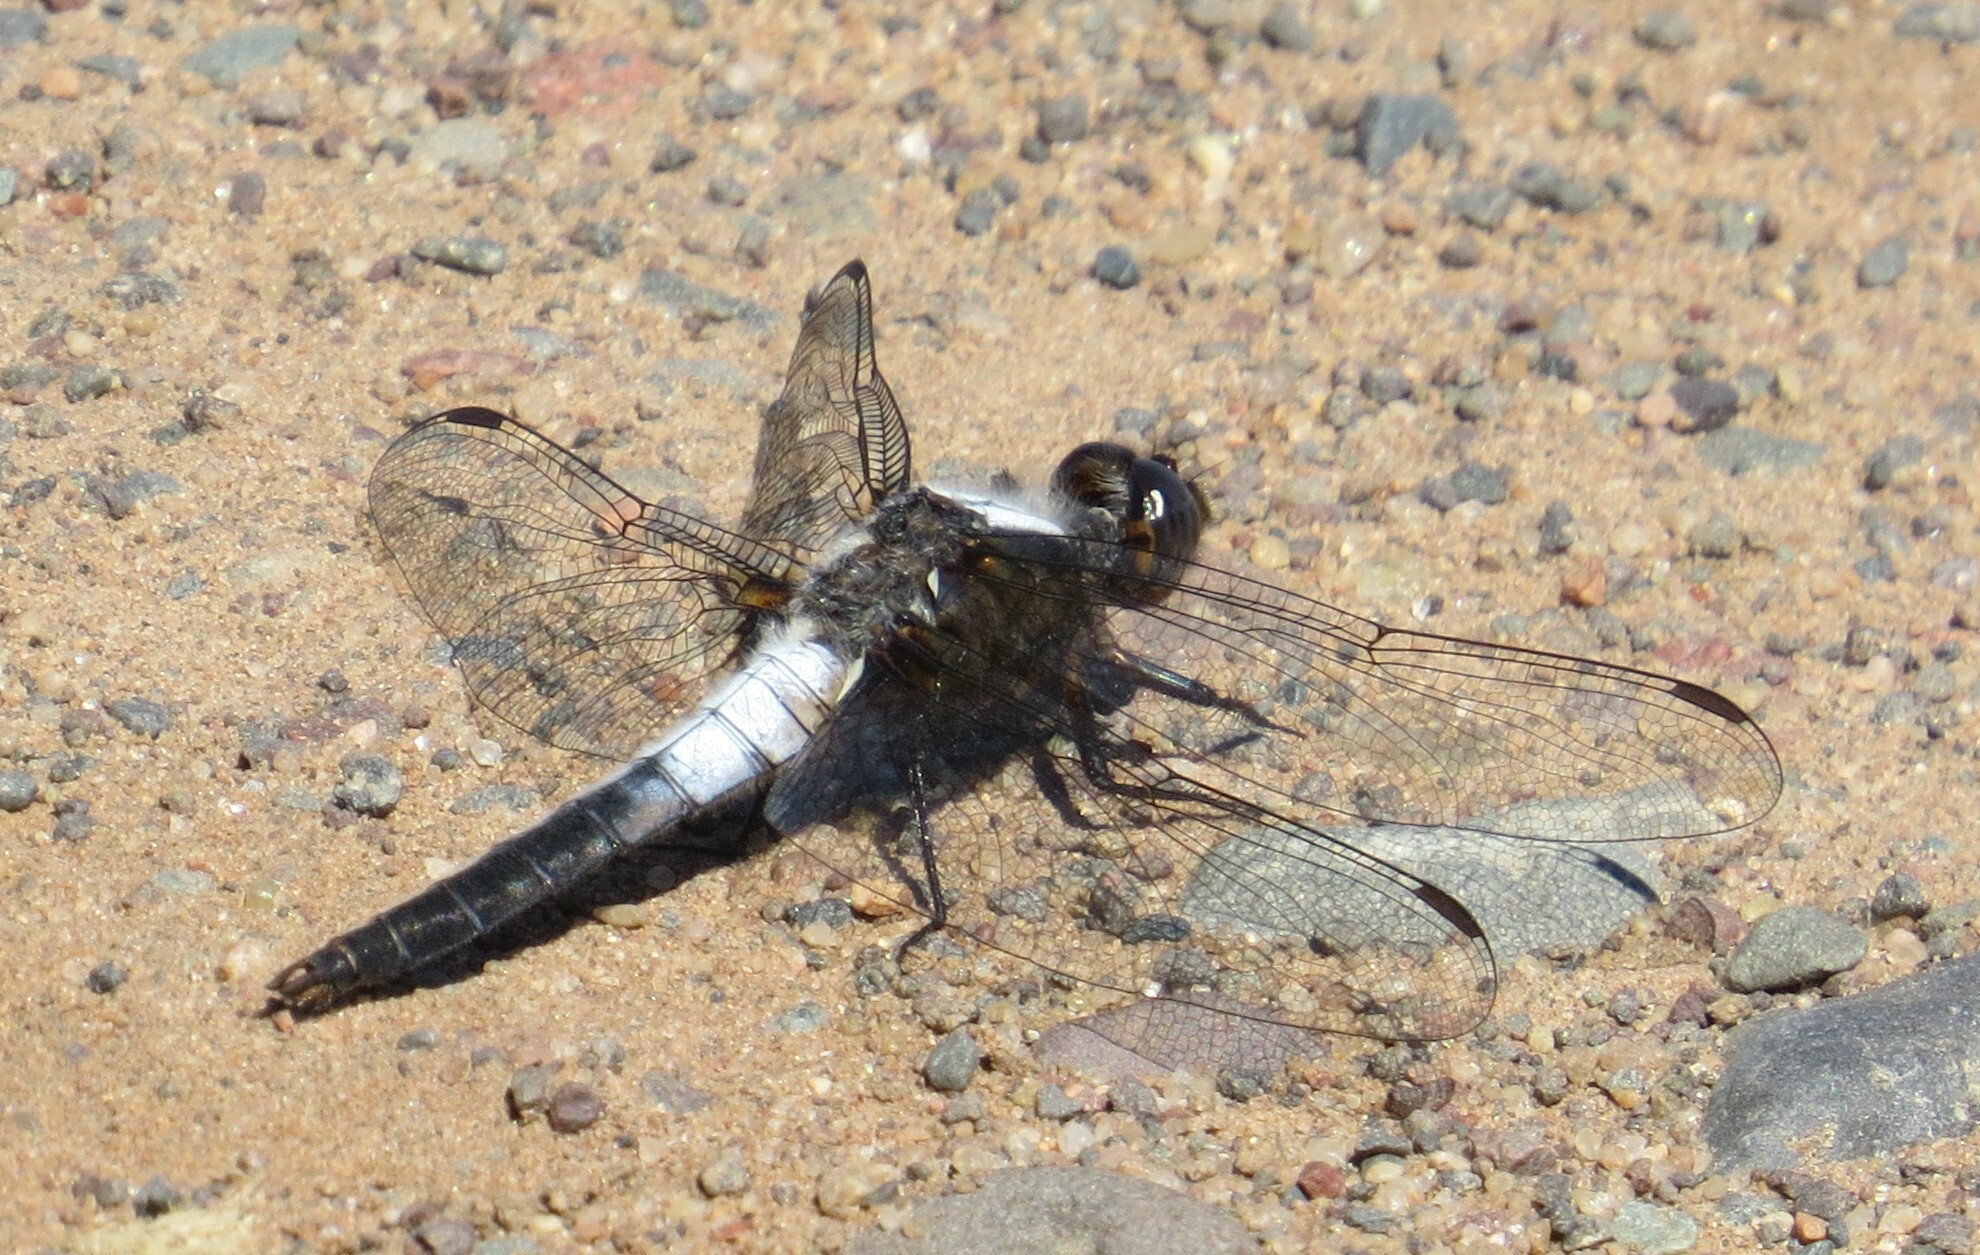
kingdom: Animalia
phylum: Arthropoda
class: Insecta
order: Odonata
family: Libellulidae
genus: Ladona
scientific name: Ladona julia
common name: Chalk-fronted corporal
